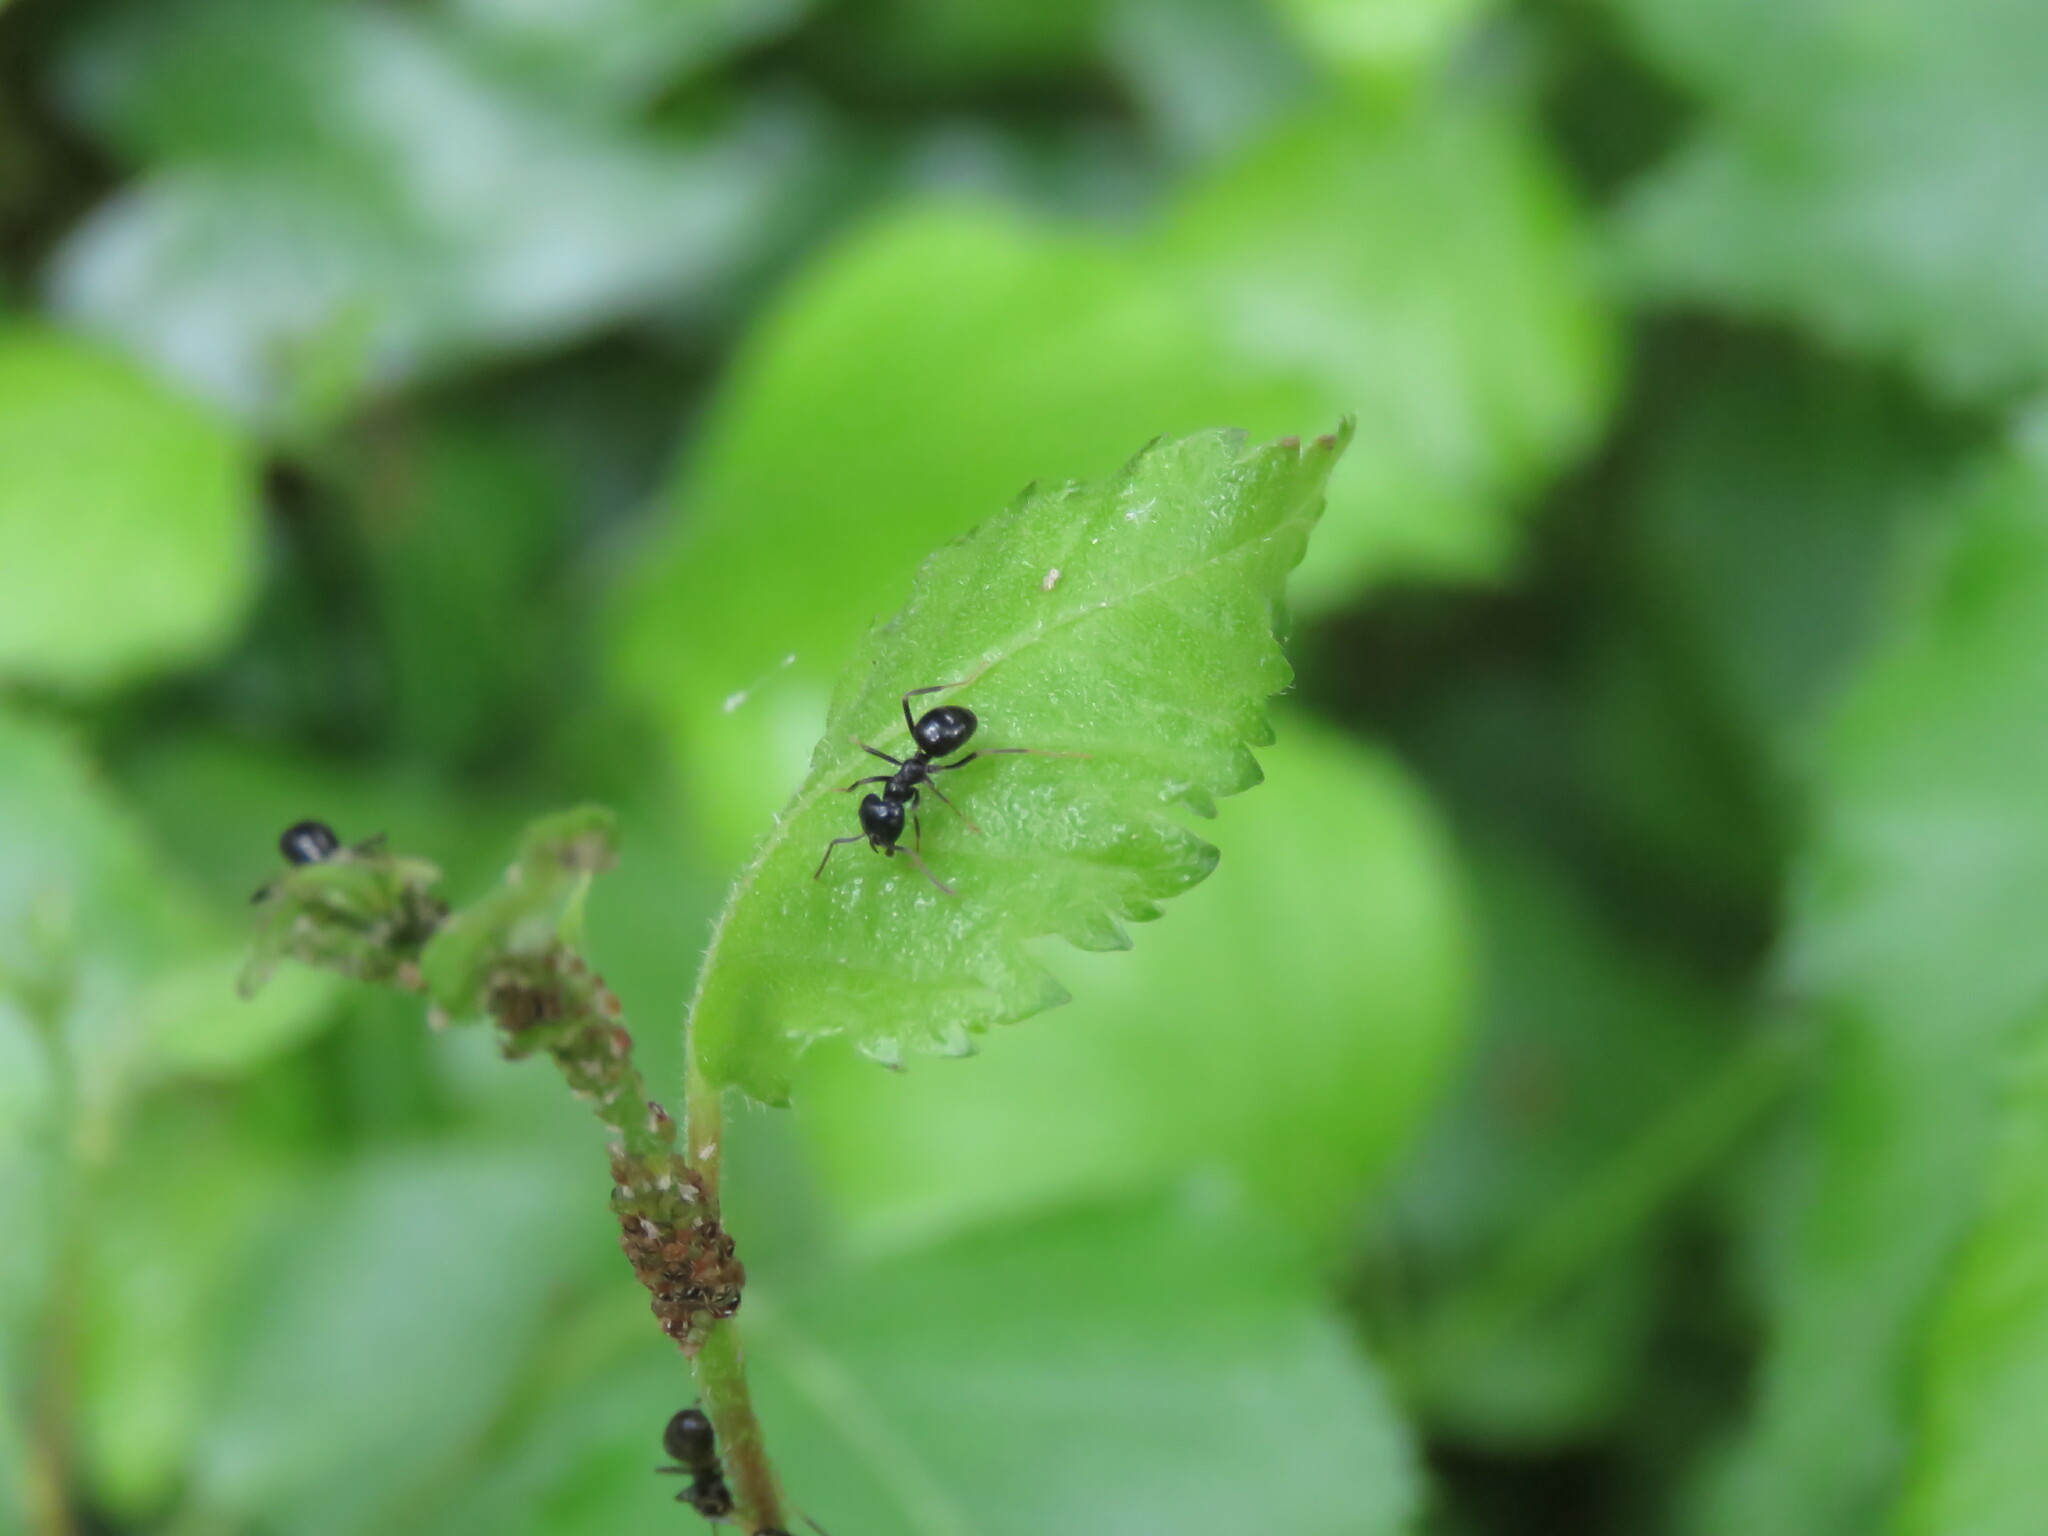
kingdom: Animalia
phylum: Arthropoda
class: Insecta
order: Hymenoptera
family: Formicidae
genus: Lasius
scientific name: Lasius fuliginosus
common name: Jet ant
